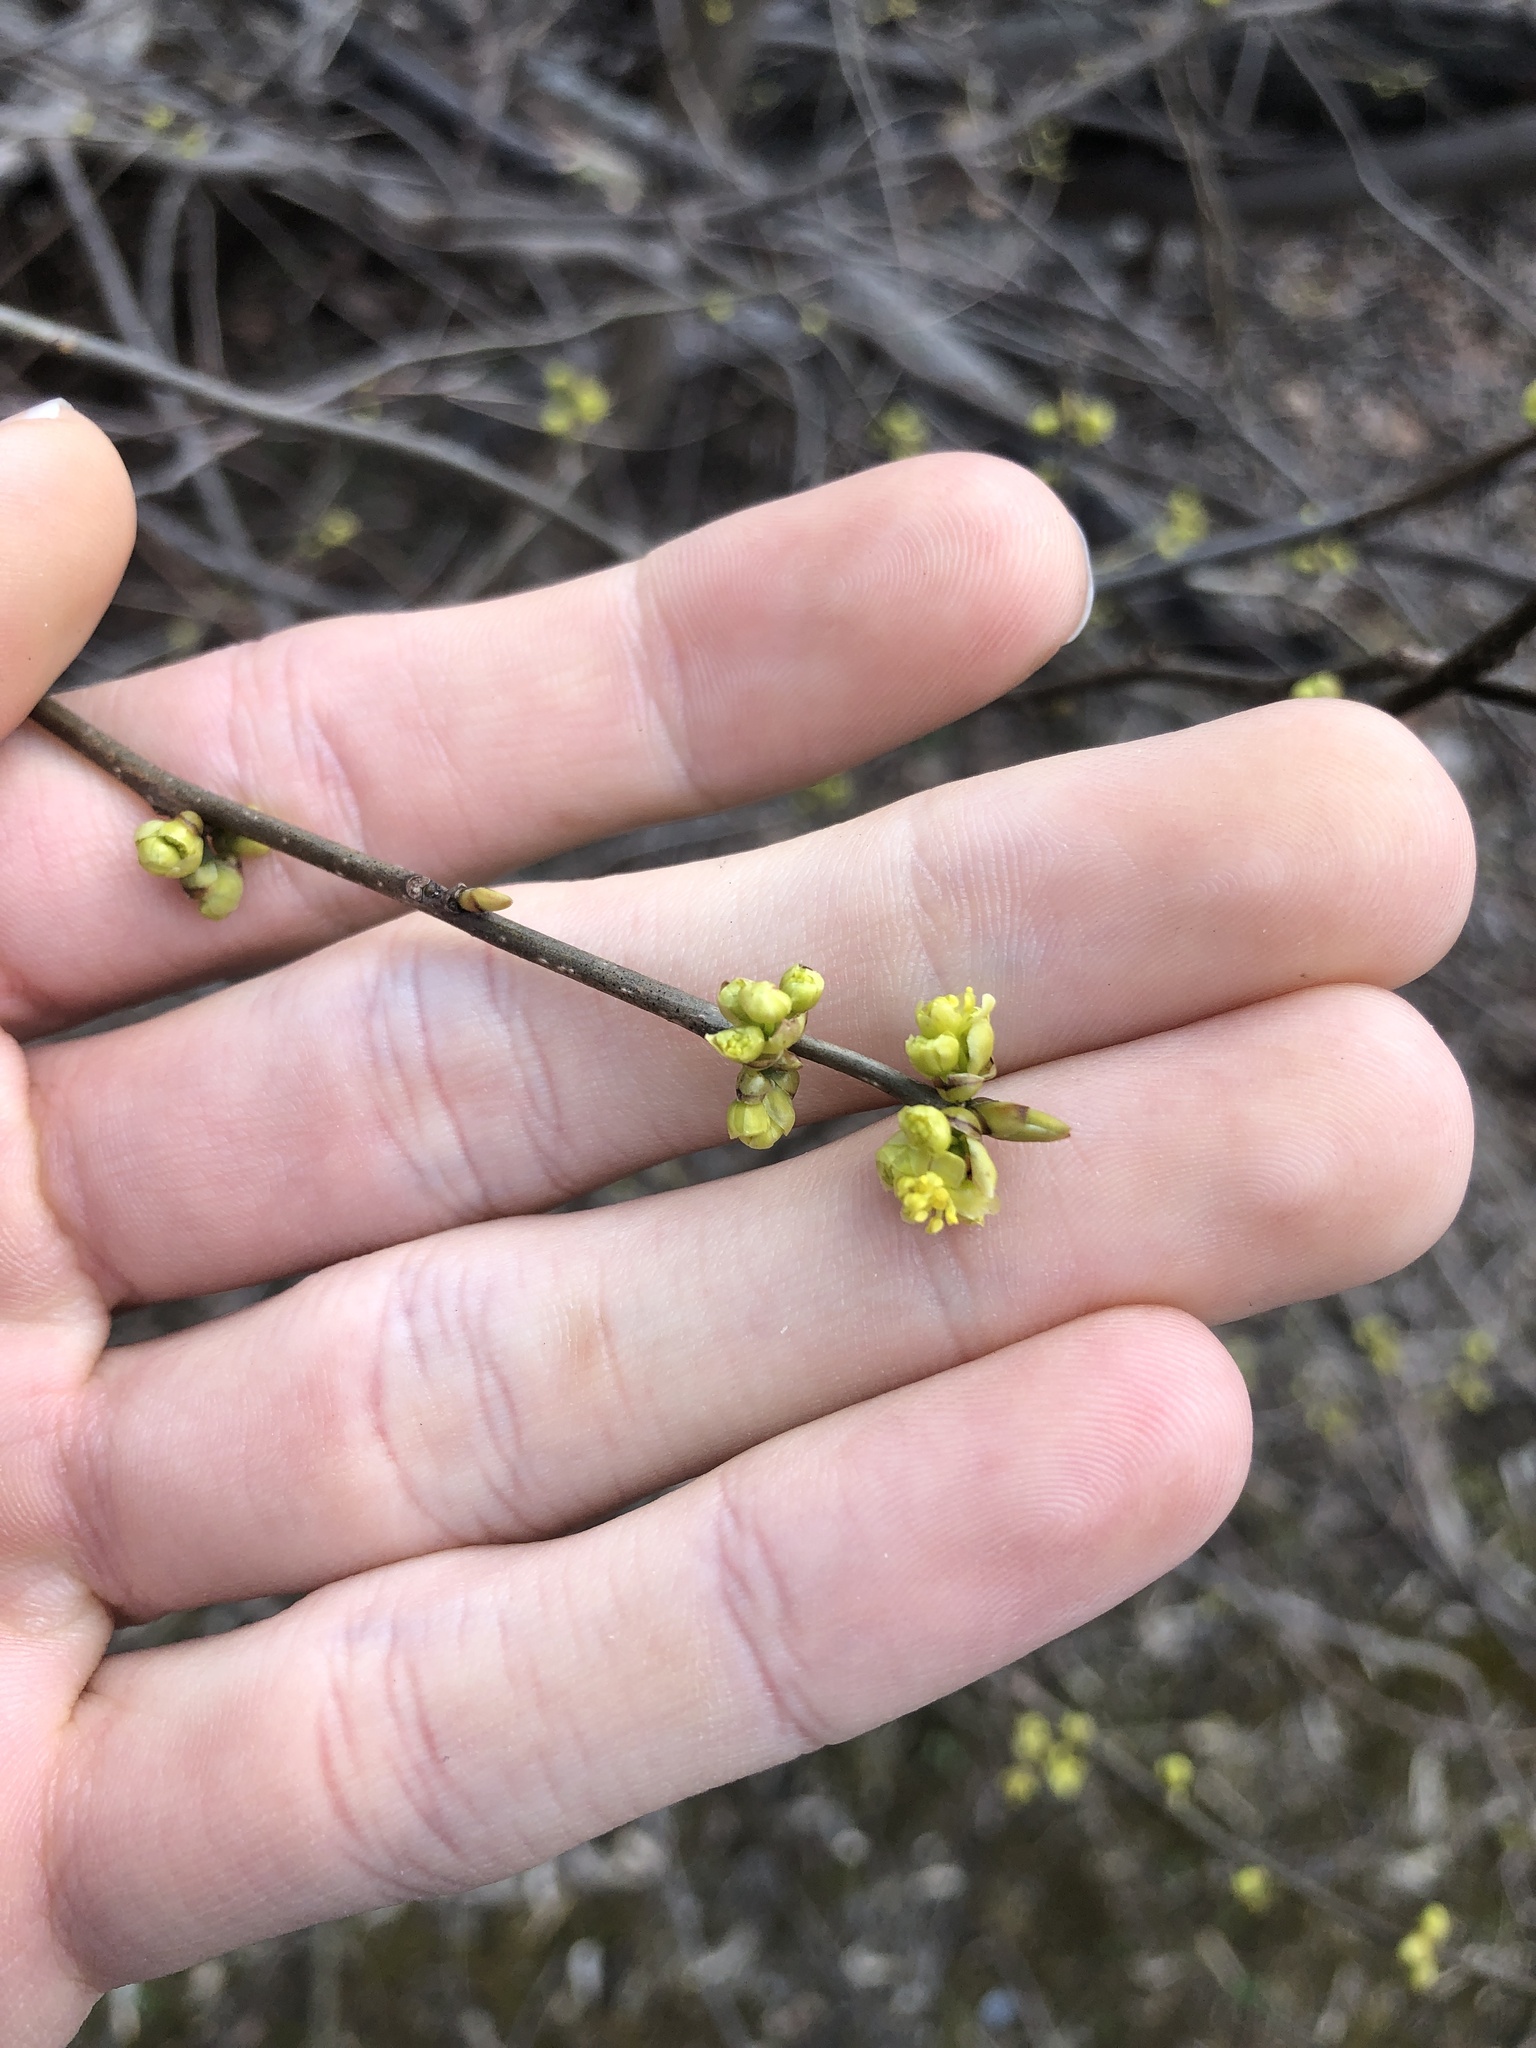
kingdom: Plantae
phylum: Tracheophyta
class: Magnoliopsida
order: Laurales
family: Lauraceae
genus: Lindera
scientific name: Lindera benzoin
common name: Spicebush
